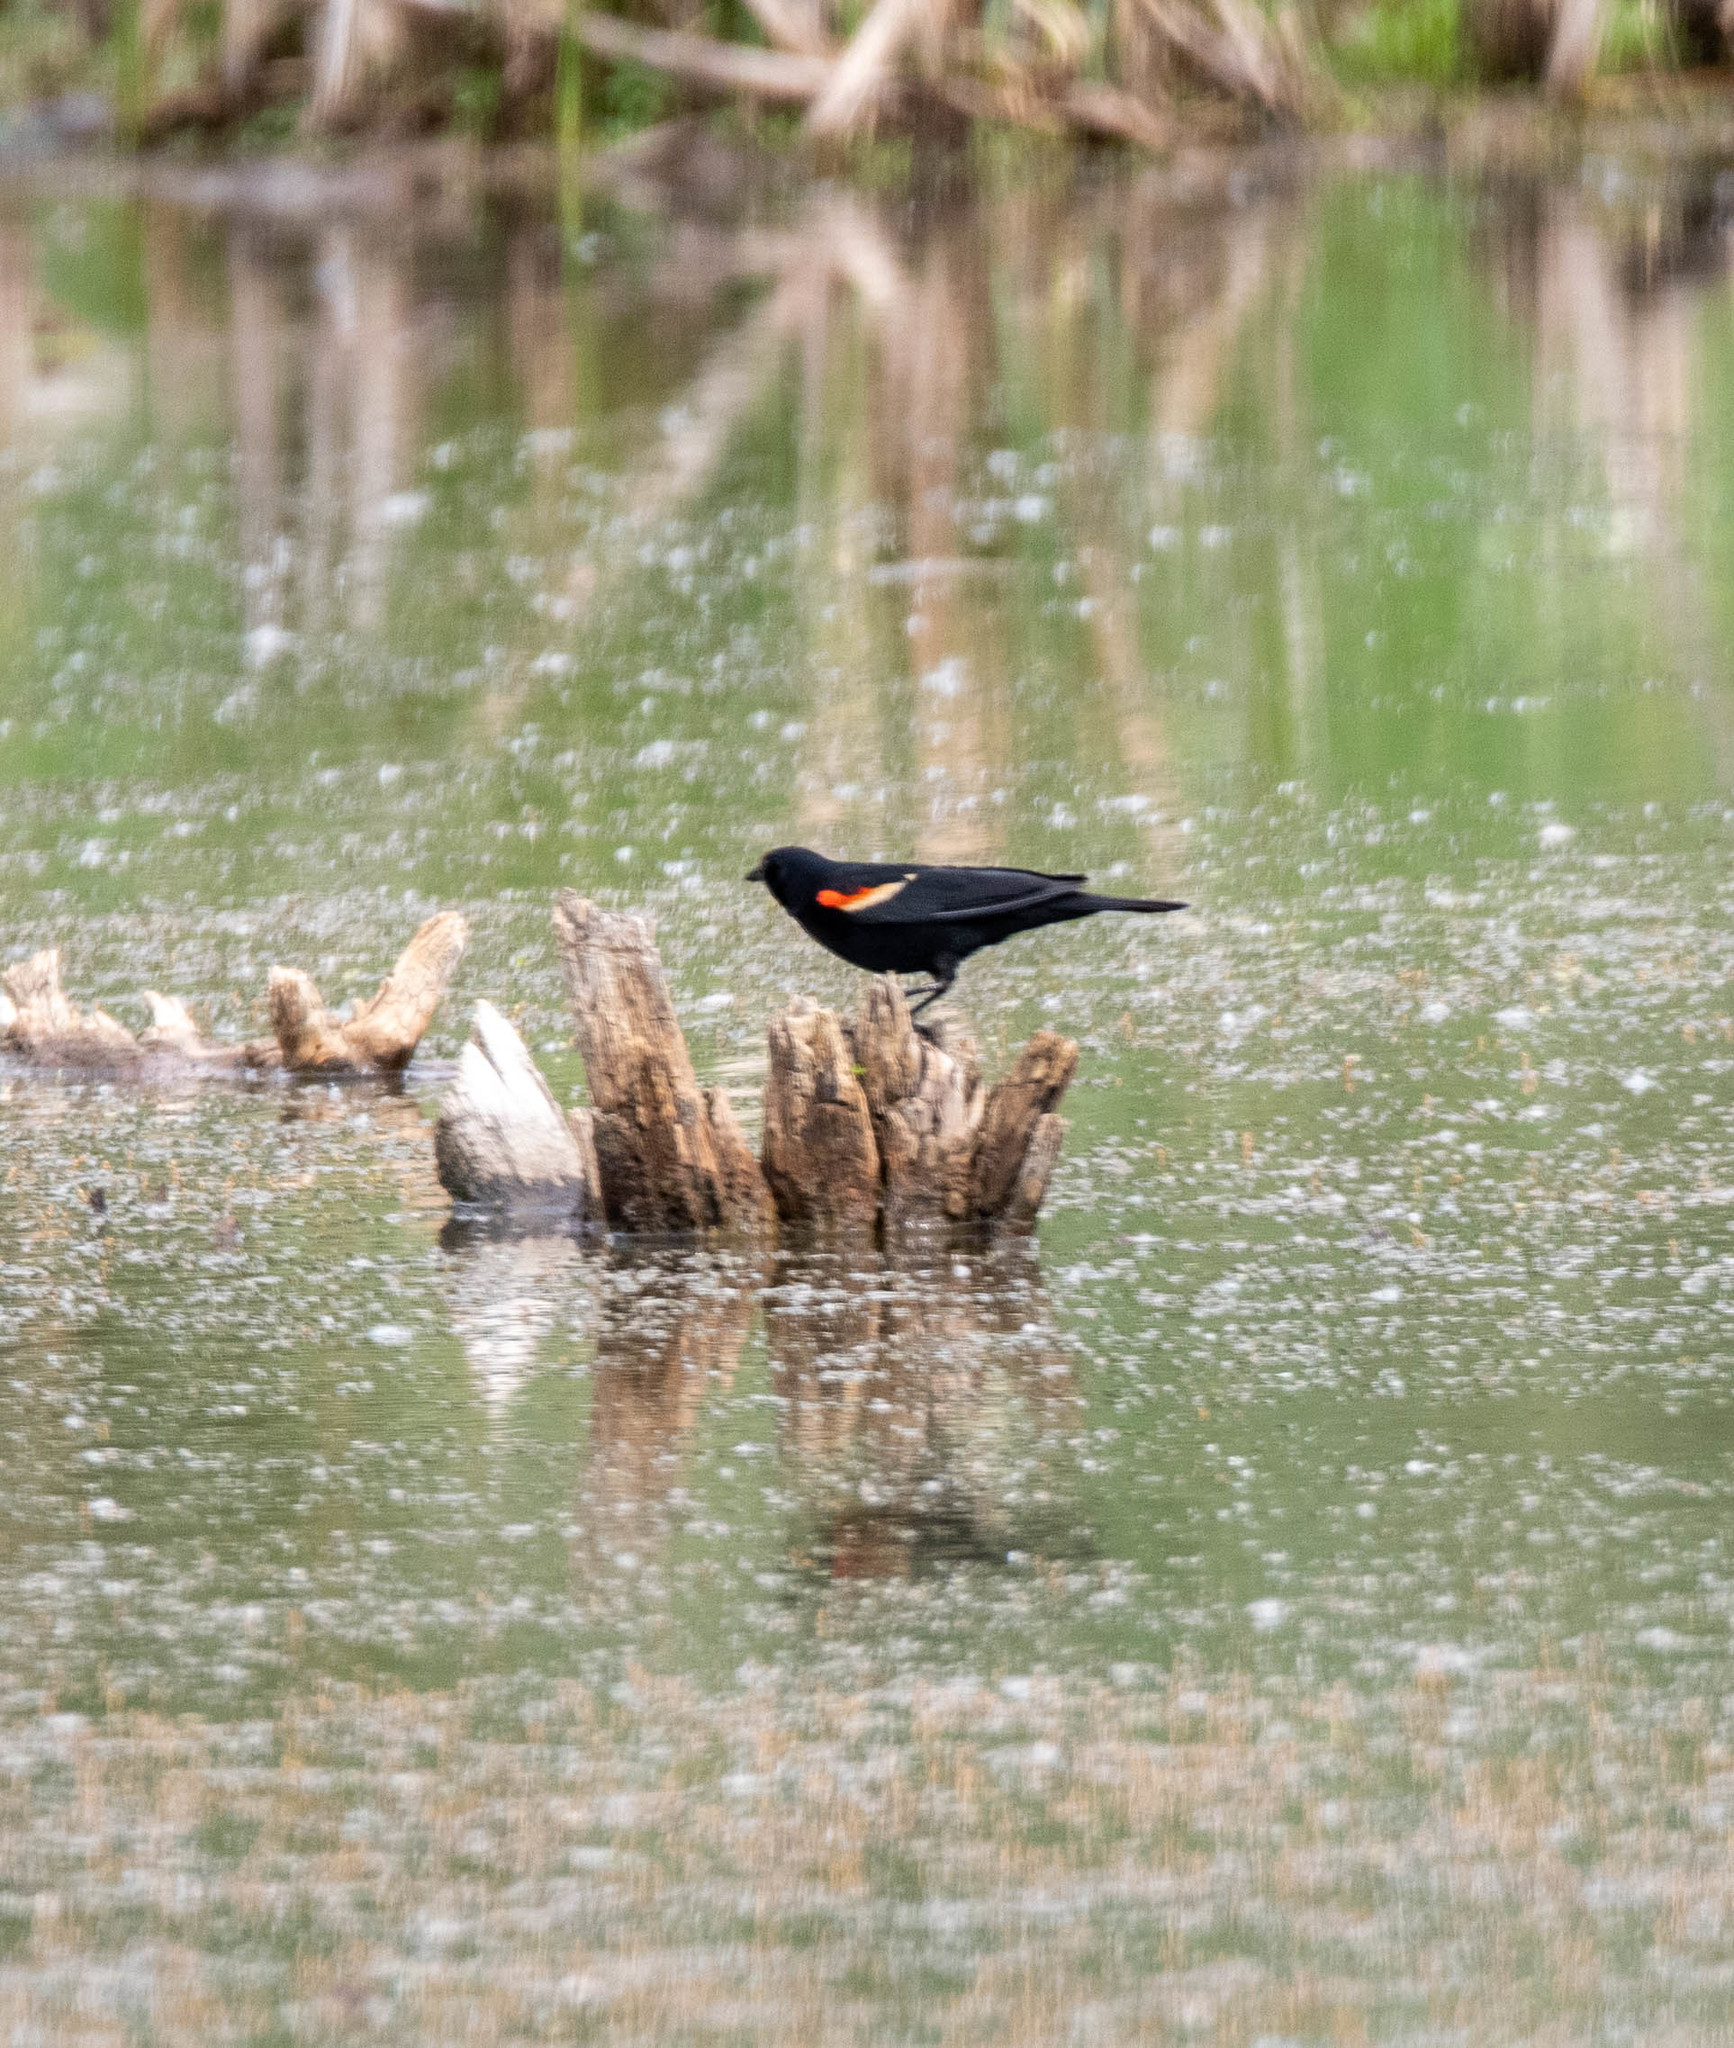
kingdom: Animalia
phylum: Chordata
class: Aves
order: Passeriformes
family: Icteridae
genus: Agelaius
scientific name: Agelaius phoeniceus
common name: Red-winged blackbird
